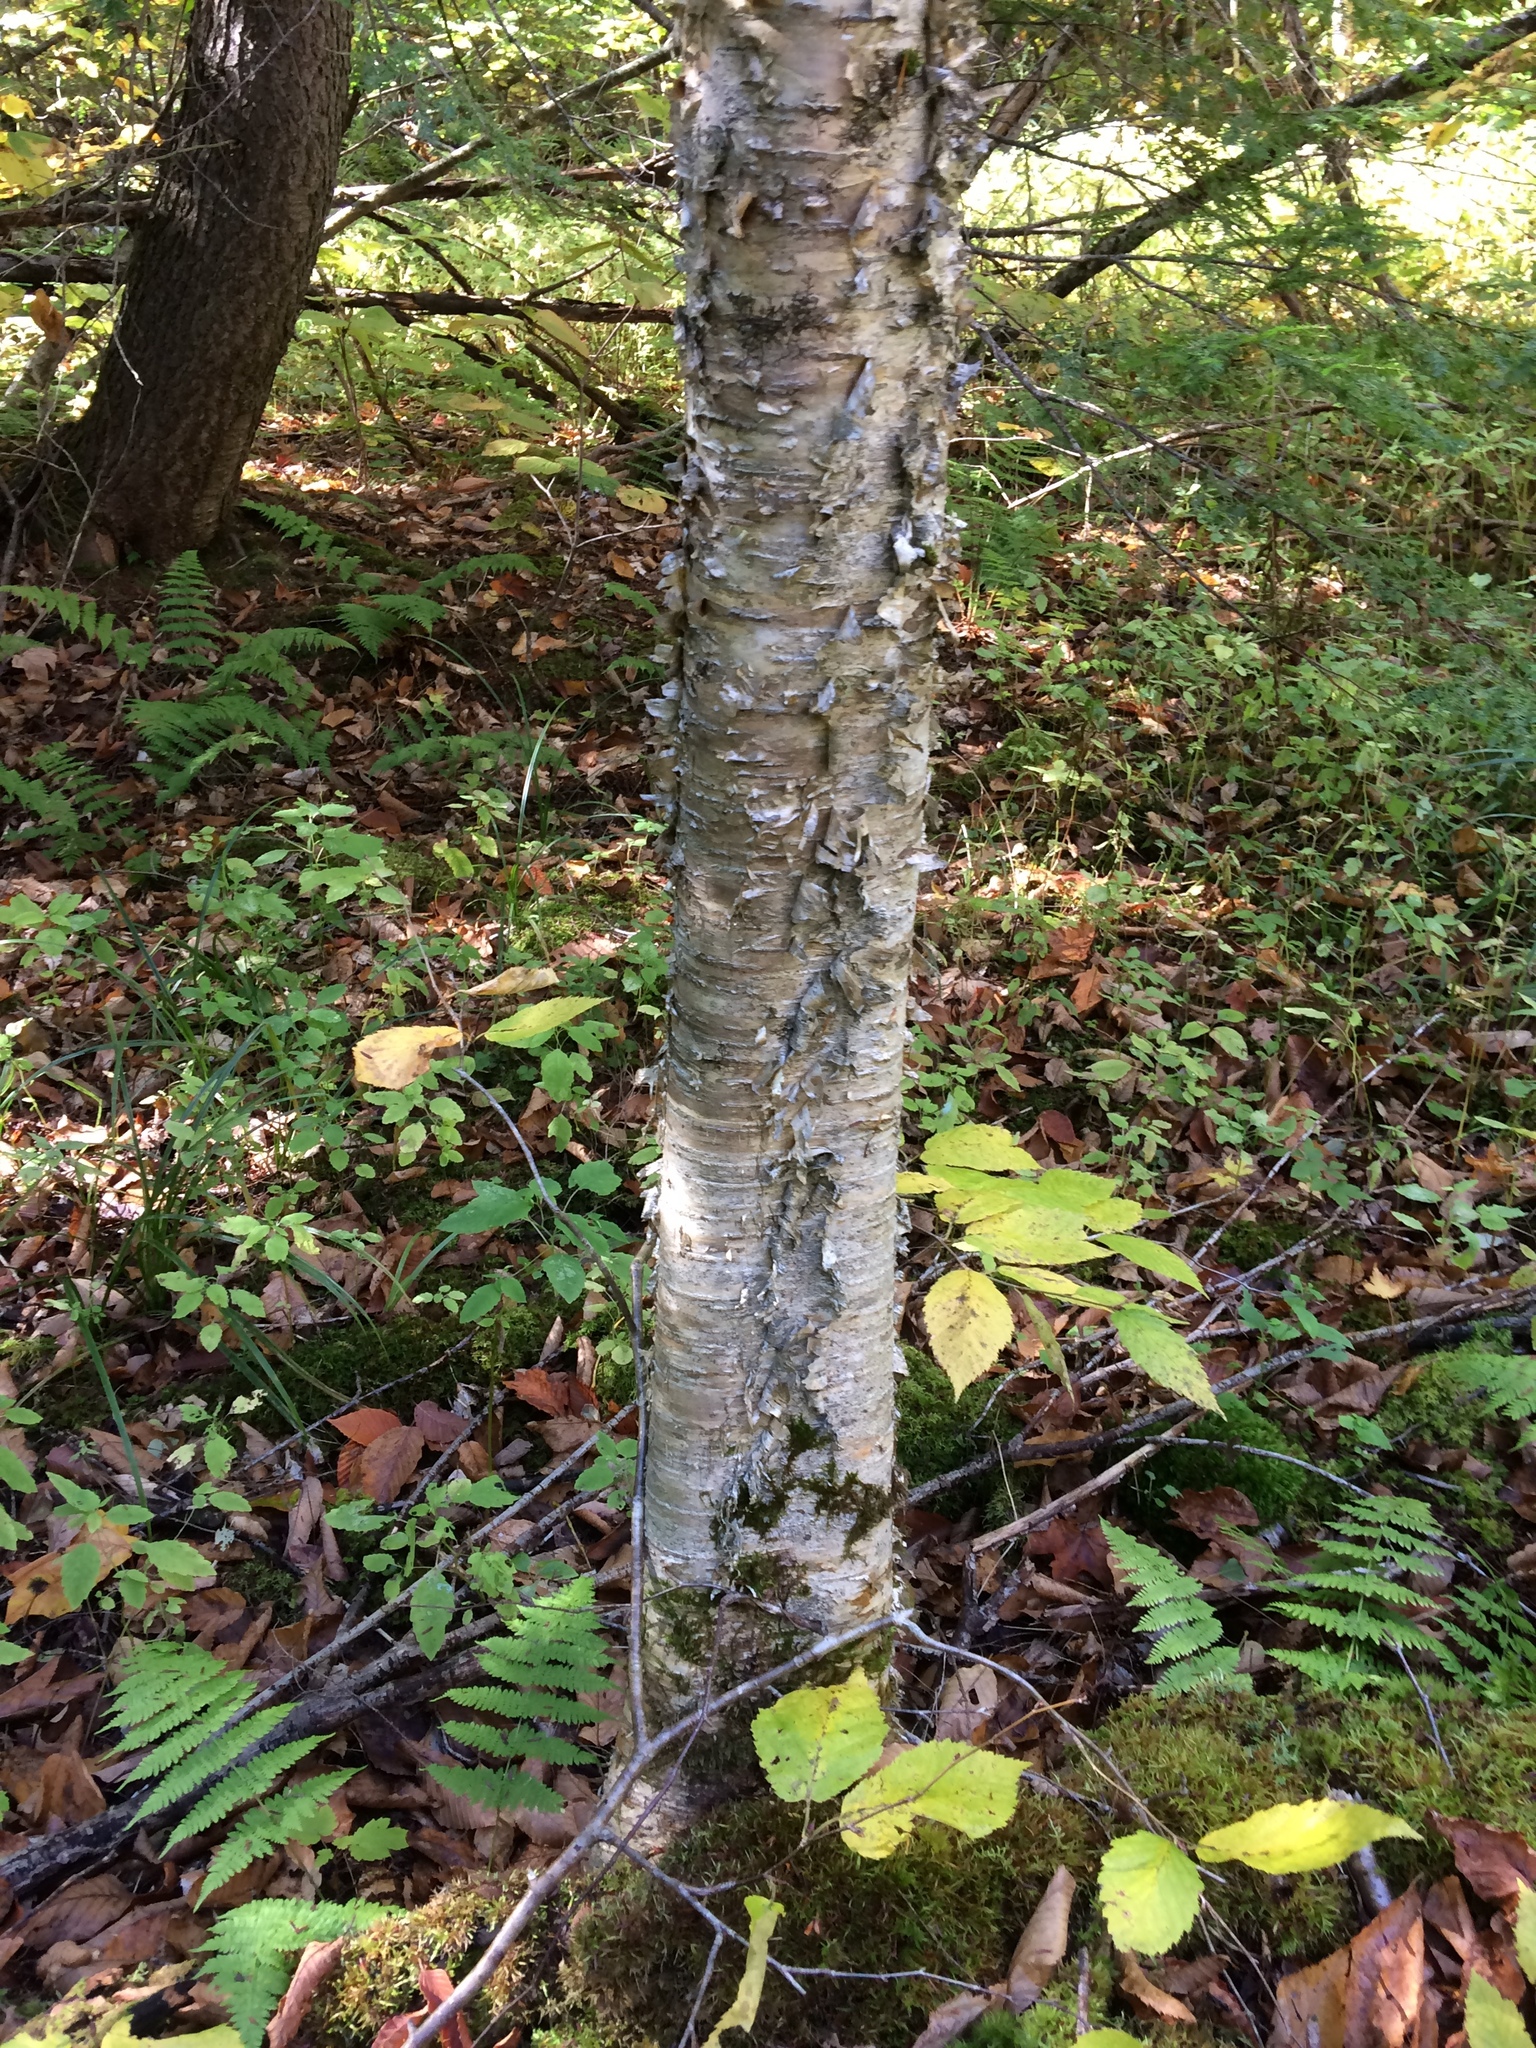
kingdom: Plantae
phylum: Tracheophyta
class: Magnoliopsida
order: Fagales
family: Betulaceae
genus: Betula
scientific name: Betula alleghaniensis
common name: Yellow birch
